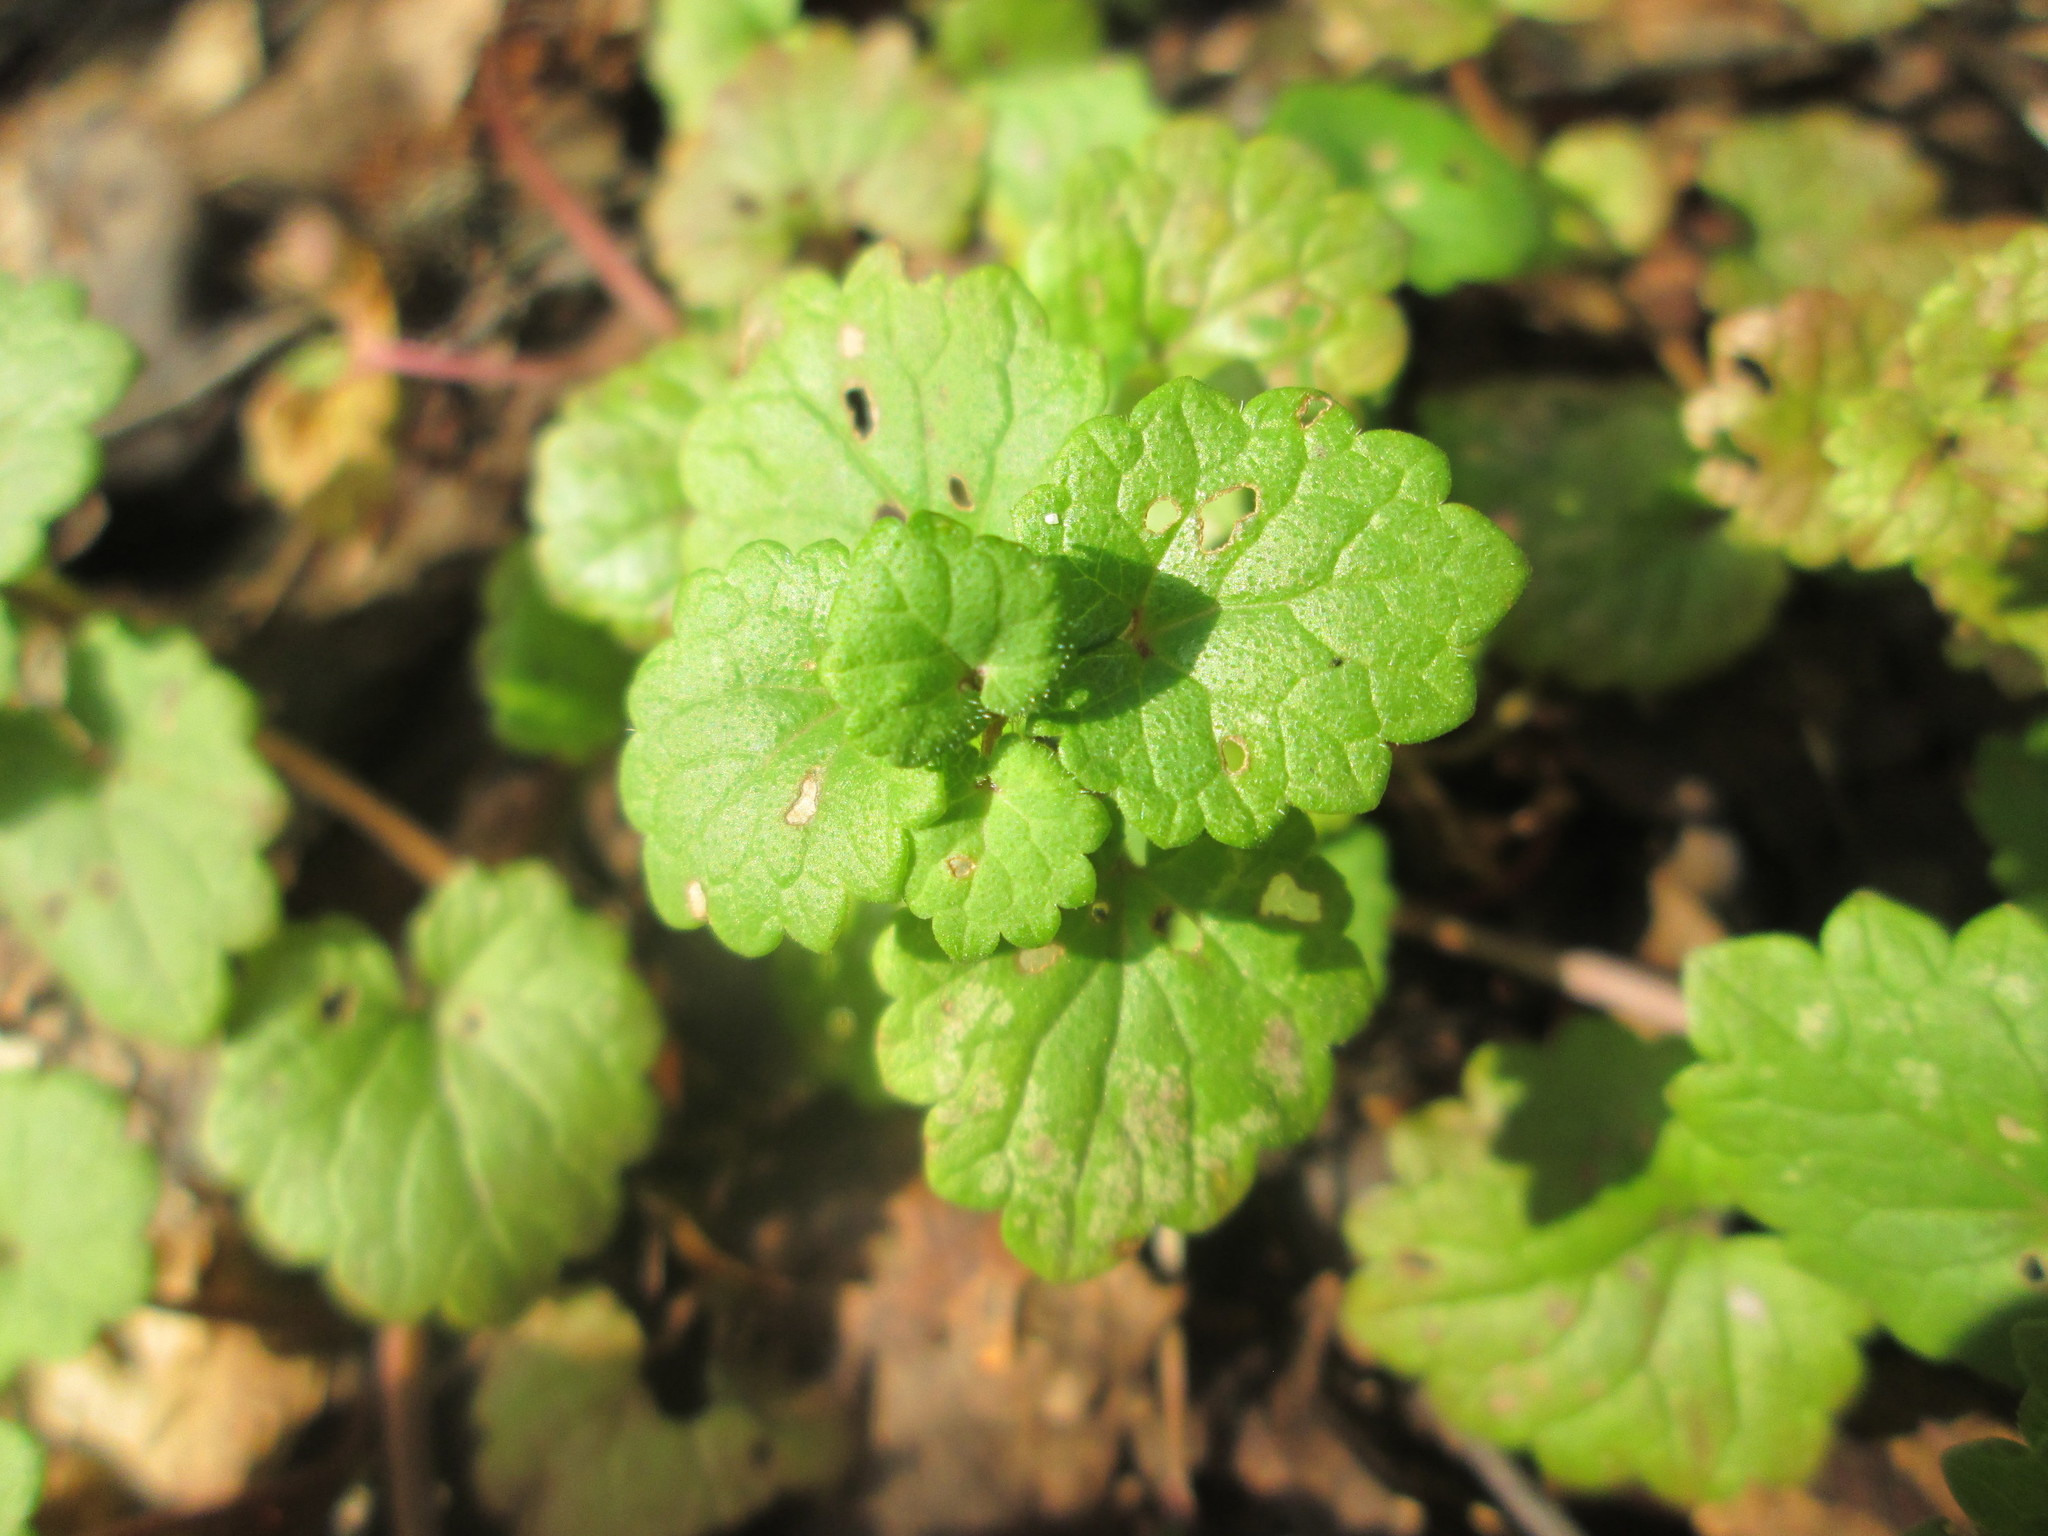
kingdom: Plantae
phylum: Tracheophyta
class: Magnoliopsida
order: Lamiales
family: Lamiaceae
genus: Glechoma
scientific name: Glechoma hederacea
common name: Ground ivy
